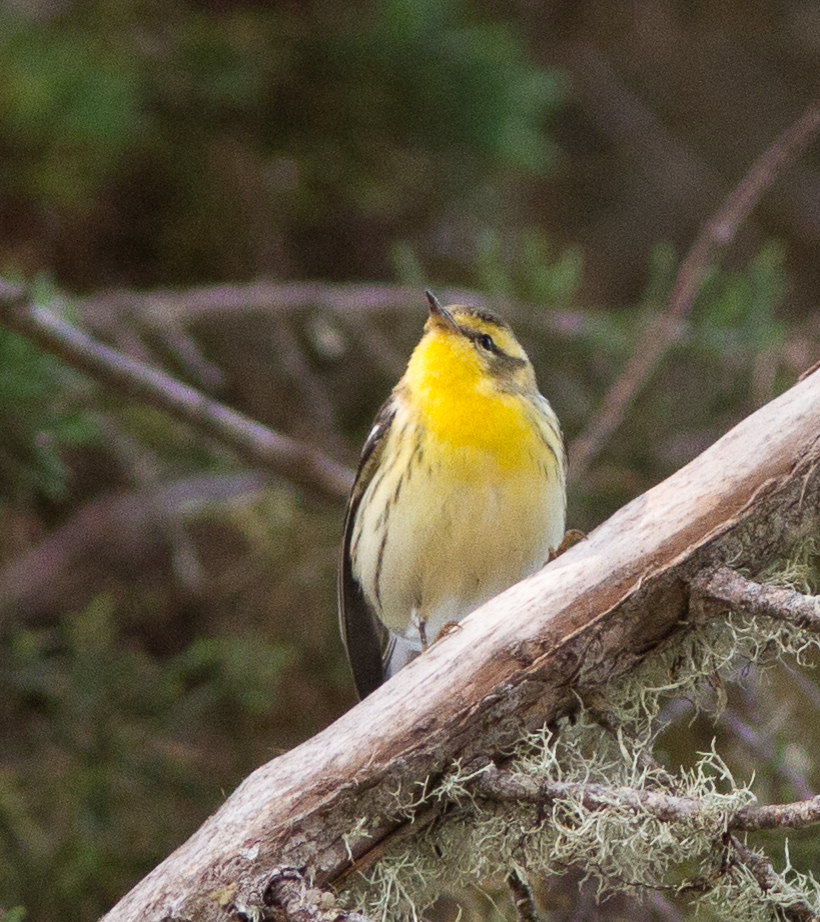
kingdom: Animalia
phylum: Chordata
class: Aves
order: Passeriformes
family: Parulidae
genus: Setophaga
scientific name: Setophaga fusca
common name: Blackburnian warbler
